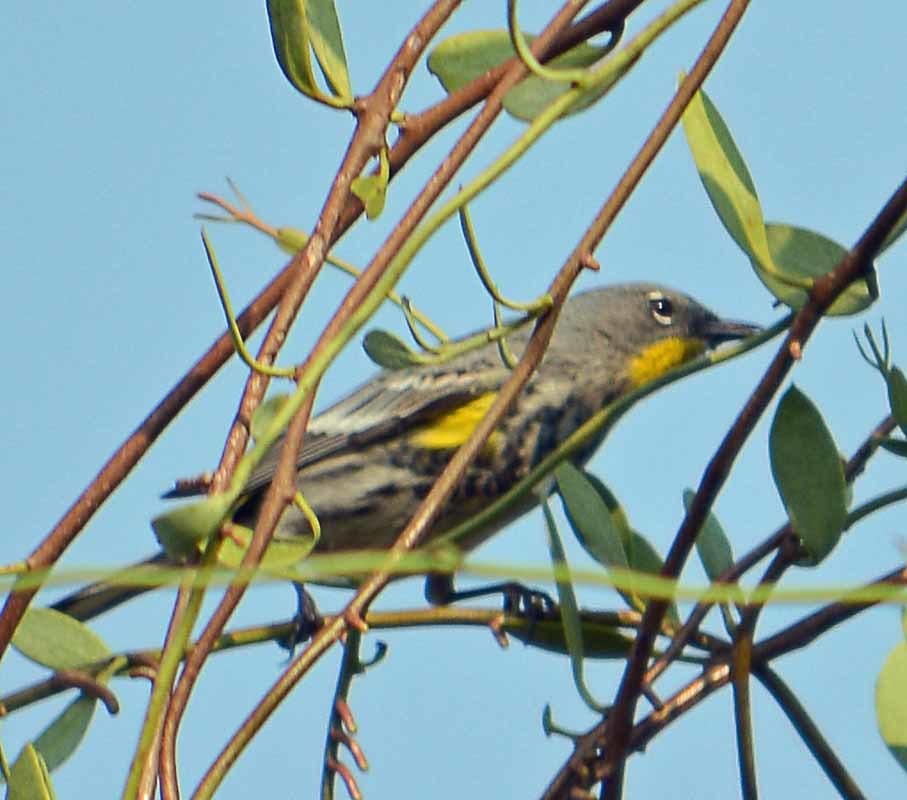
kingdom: Animalia
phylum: Chordata
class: Aves
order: Passeriformes
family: Parulidae
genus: Setophaga
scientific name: Setophaga auduboni
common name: Audubon's warbler
